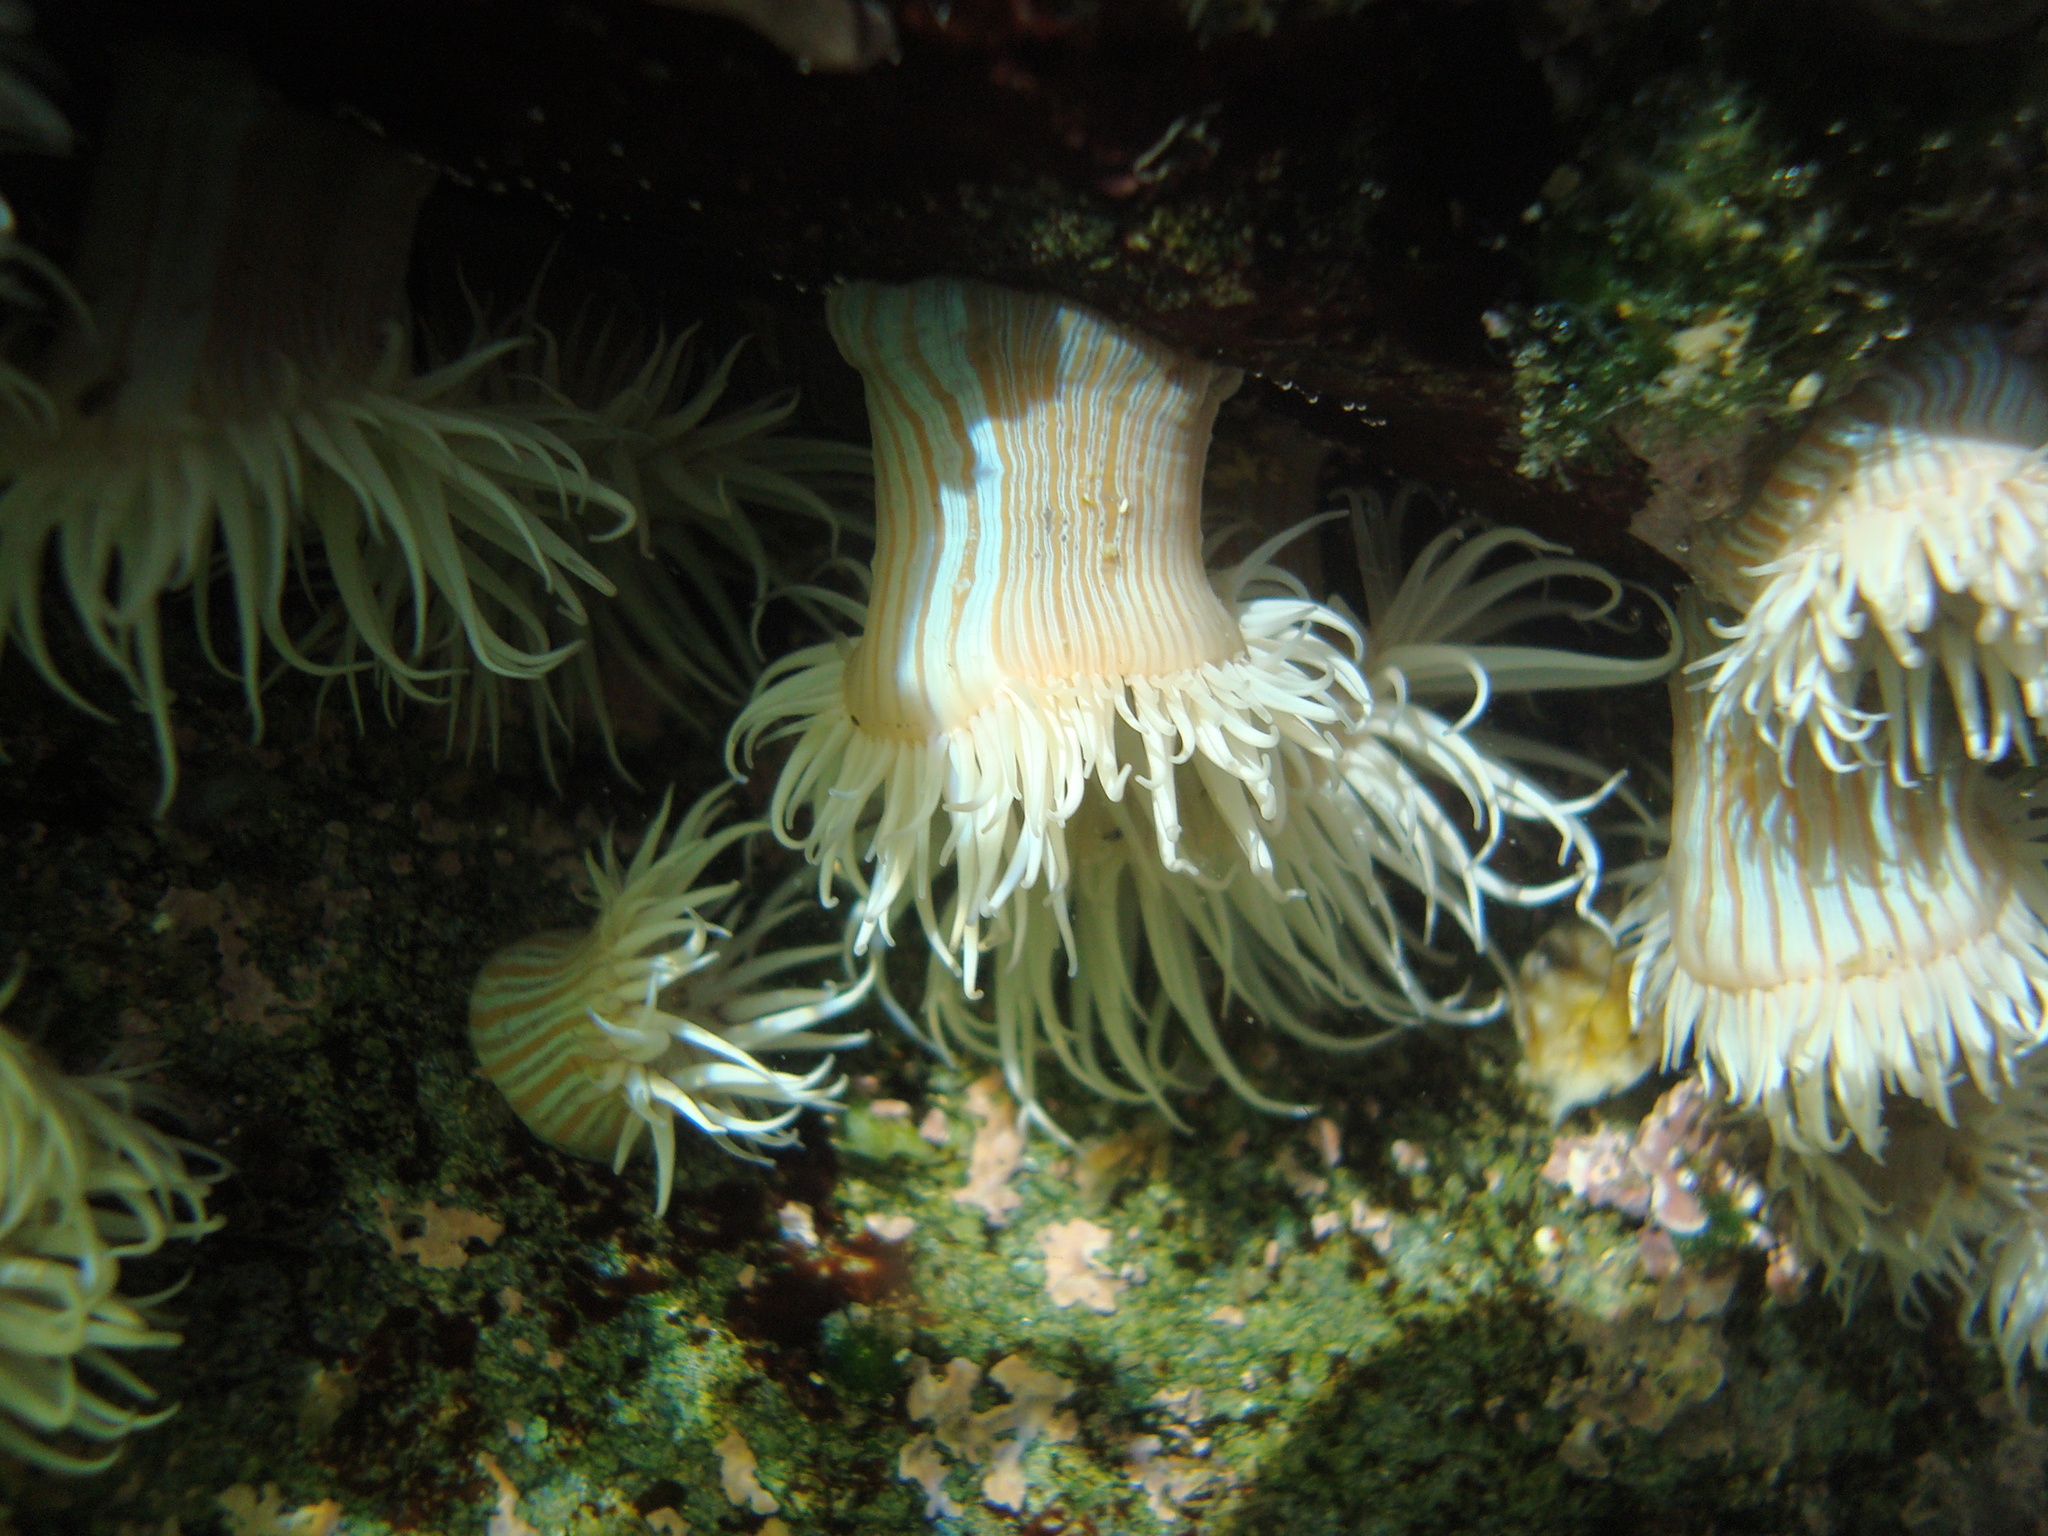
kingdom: Animalia
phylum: Cnidaria
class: Anthozoa
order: Actiniaria
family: Sagartiidae
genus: Anthothoe
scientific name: Anthothoe chilensis
